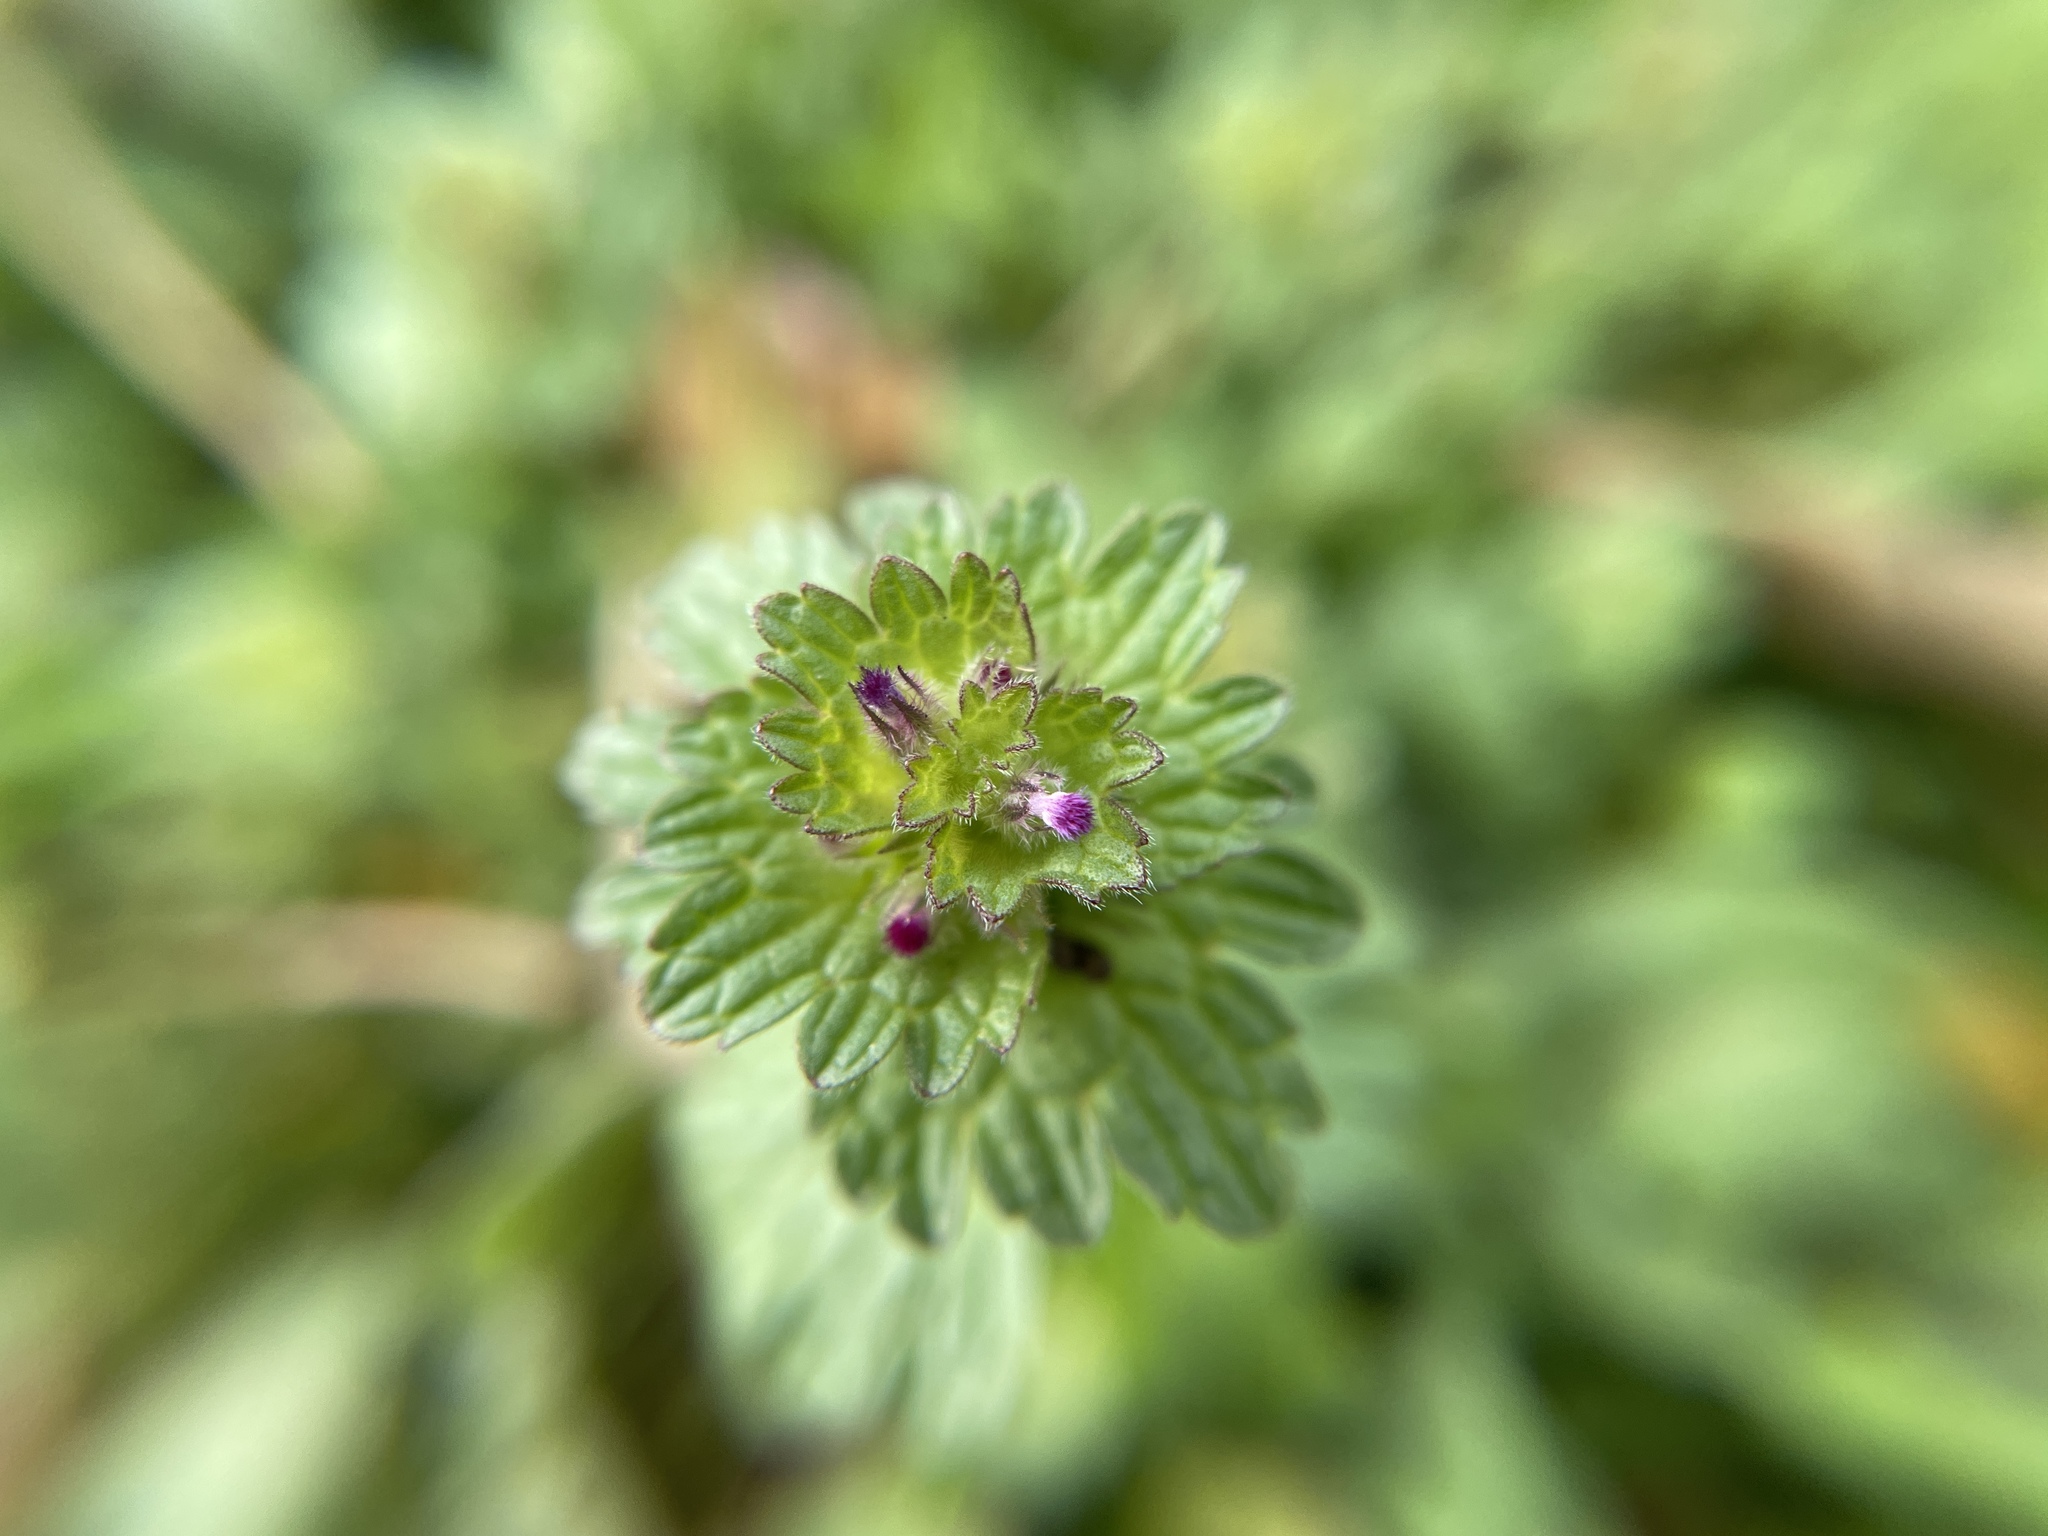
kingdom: Plantae
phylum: Tracheophyta
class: Magnoliopsida
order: Lamiales
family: Lamiaceae
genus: Lamium
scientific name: Lamium amplexicaule
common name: Henbit dead-nettle
